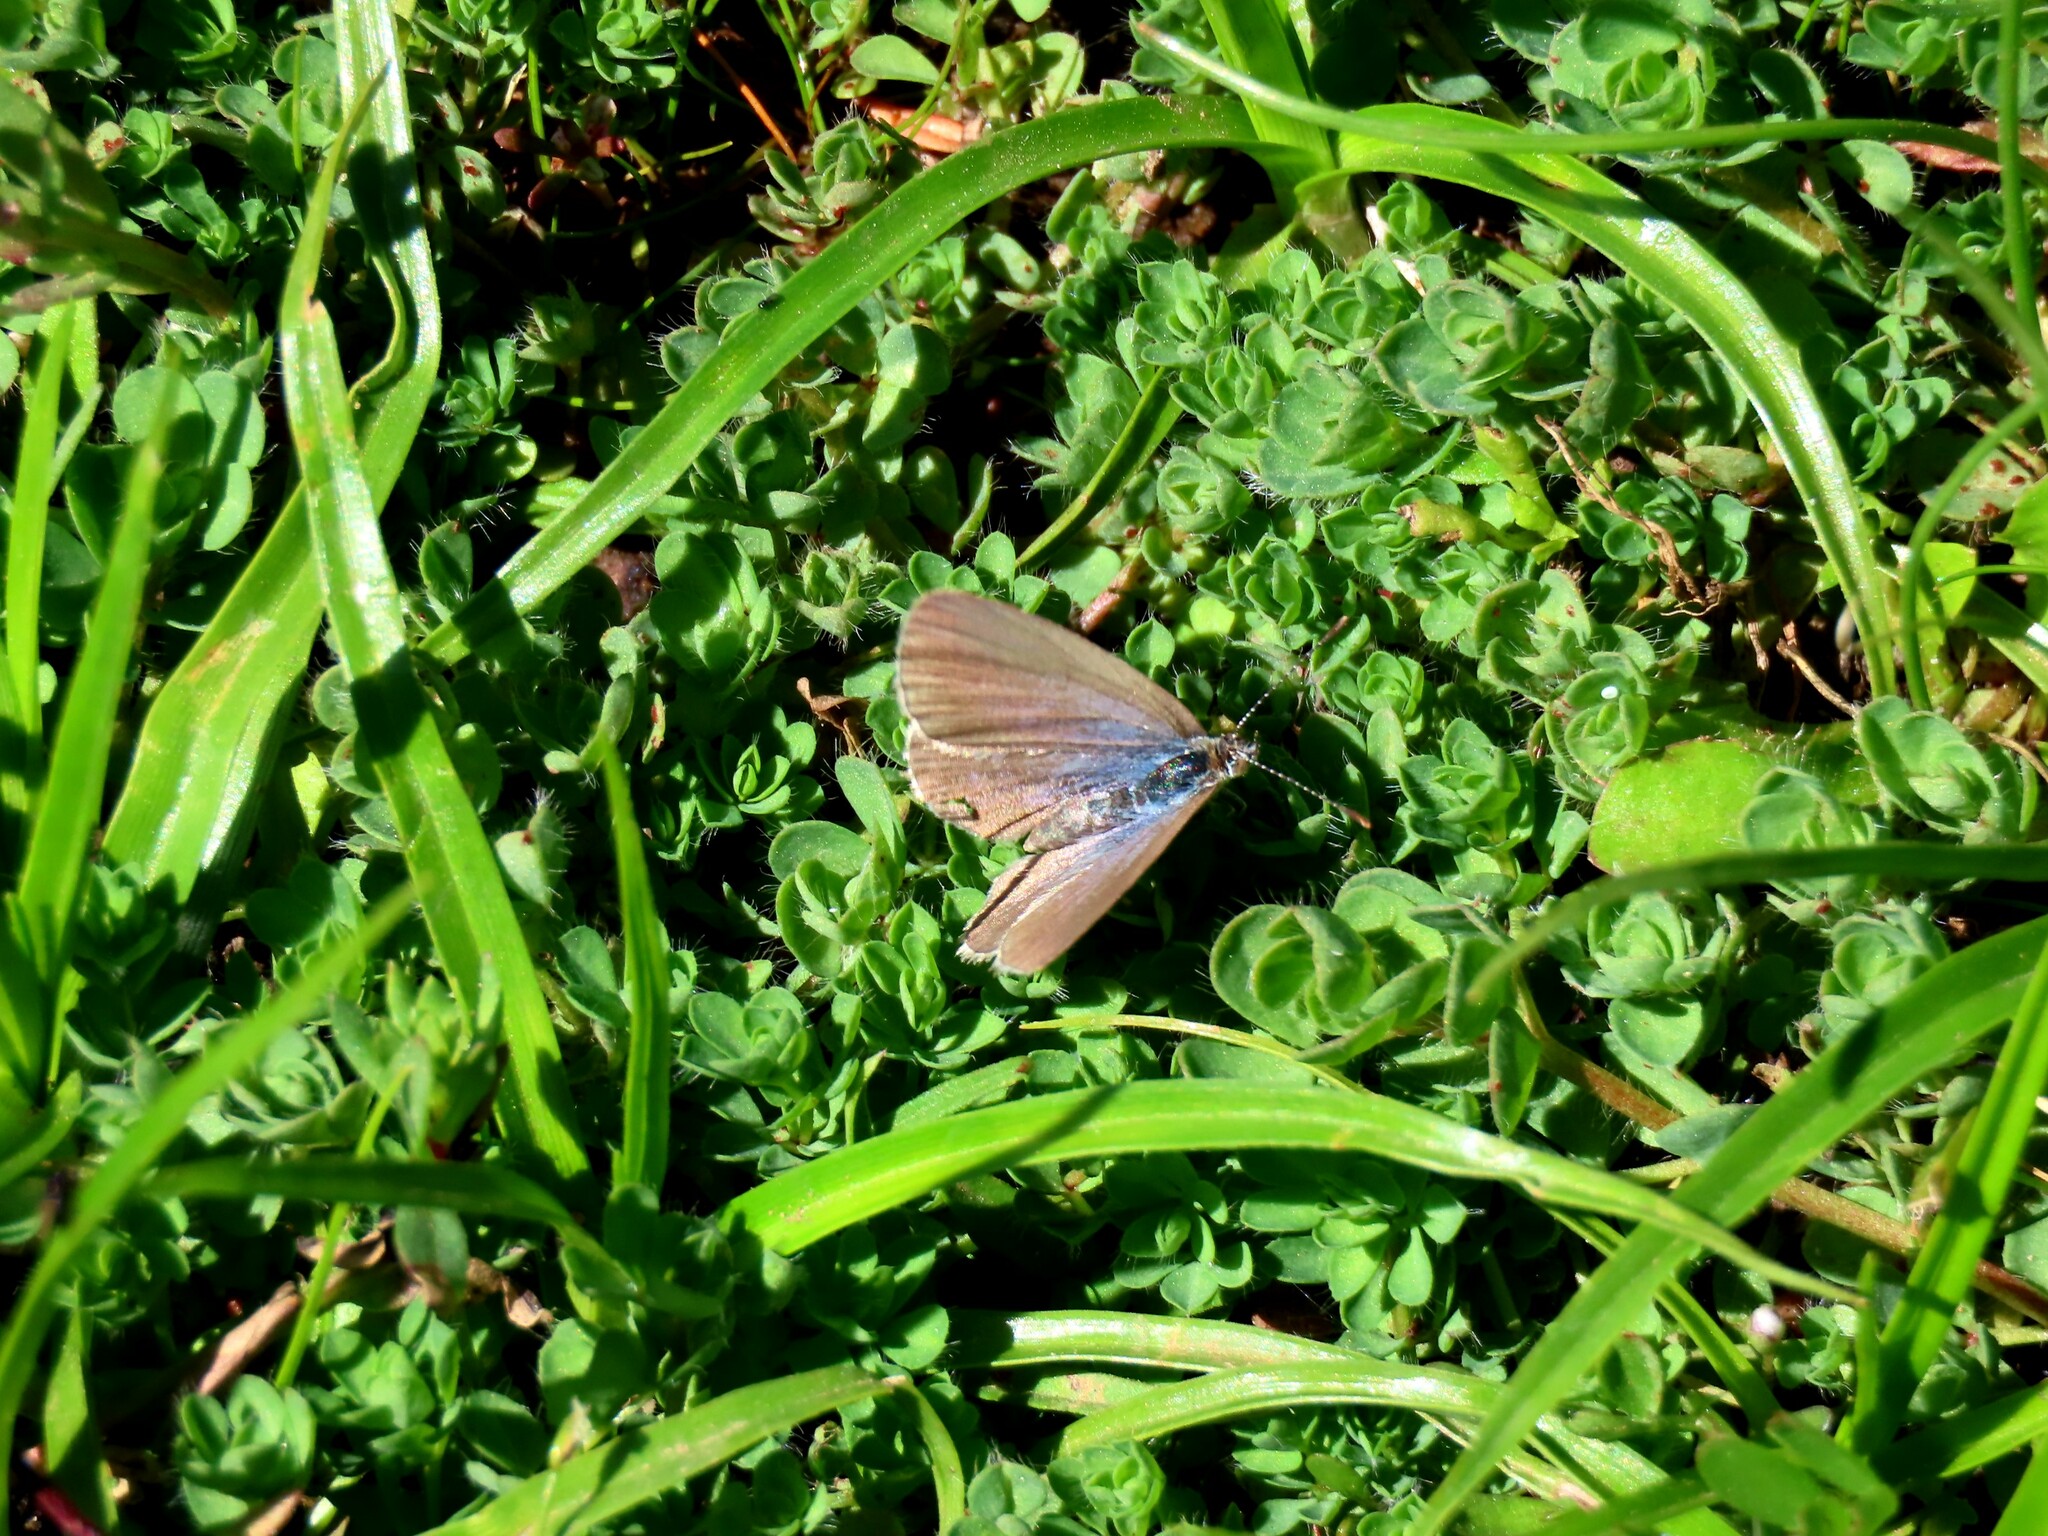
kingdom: Animalia
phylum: Arthropoda
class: Insecta
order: Lepidoptera
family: Lycaenidae
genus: Zizina
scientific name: Zizina otis
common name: Lesser grass blue
